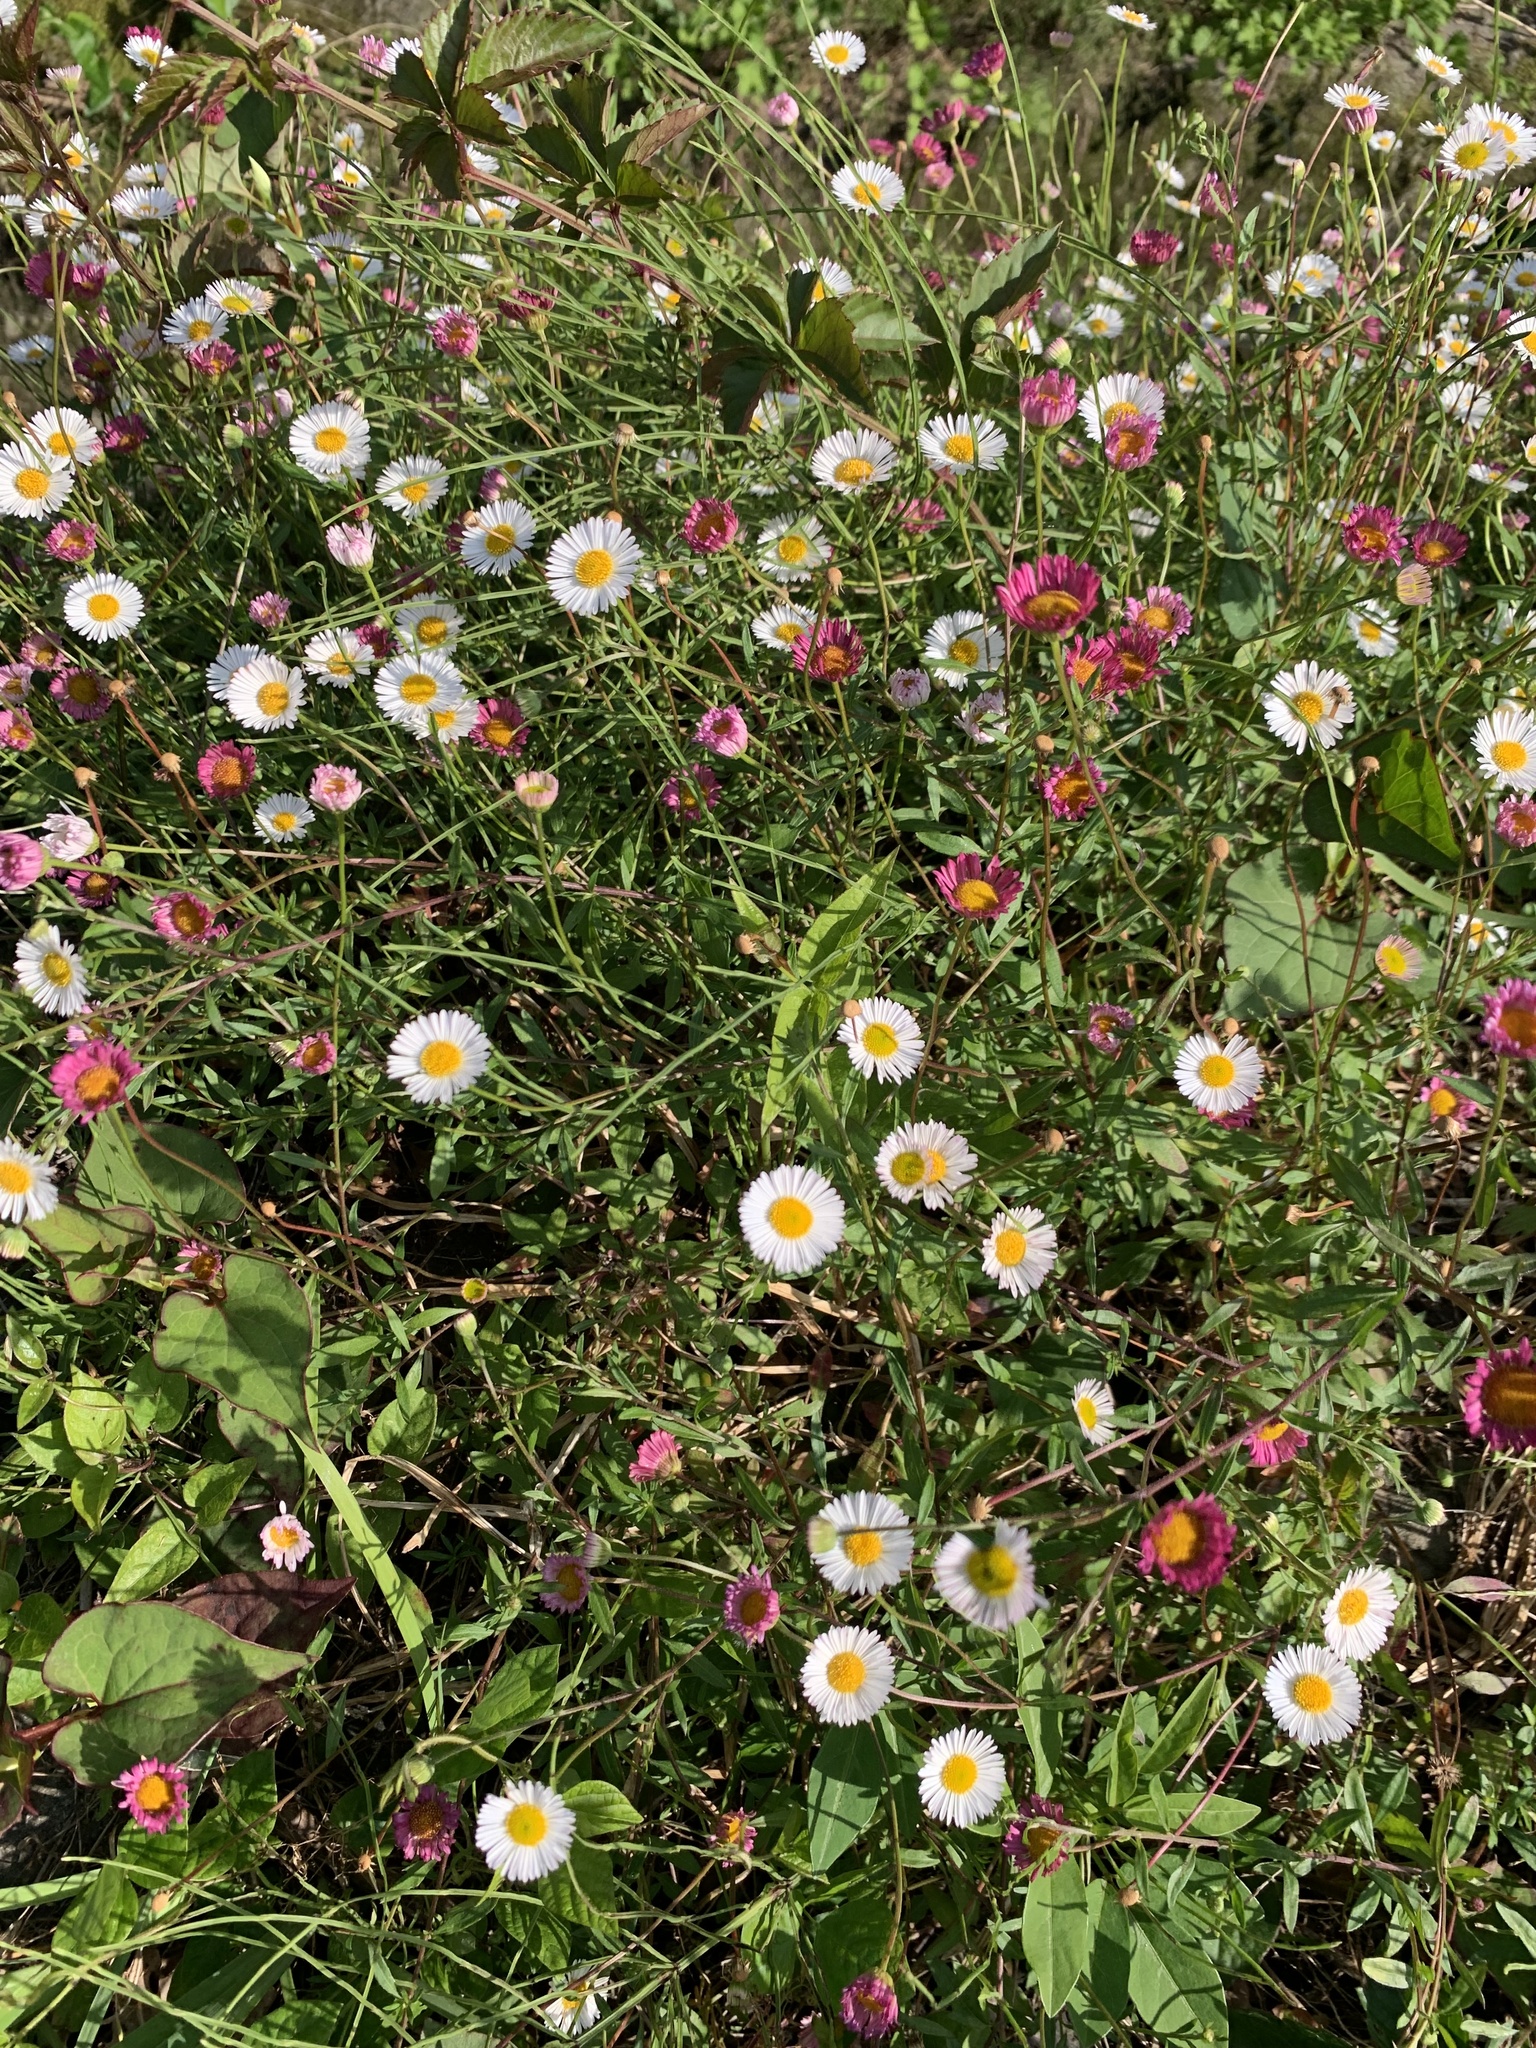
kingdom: Plantae
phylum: Tracheophyta
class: Magnoliopsida
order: Asterales
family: Asteraceae
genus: Erigeron
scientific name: Erigeron karvinskianus
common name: Mexican fleabane
